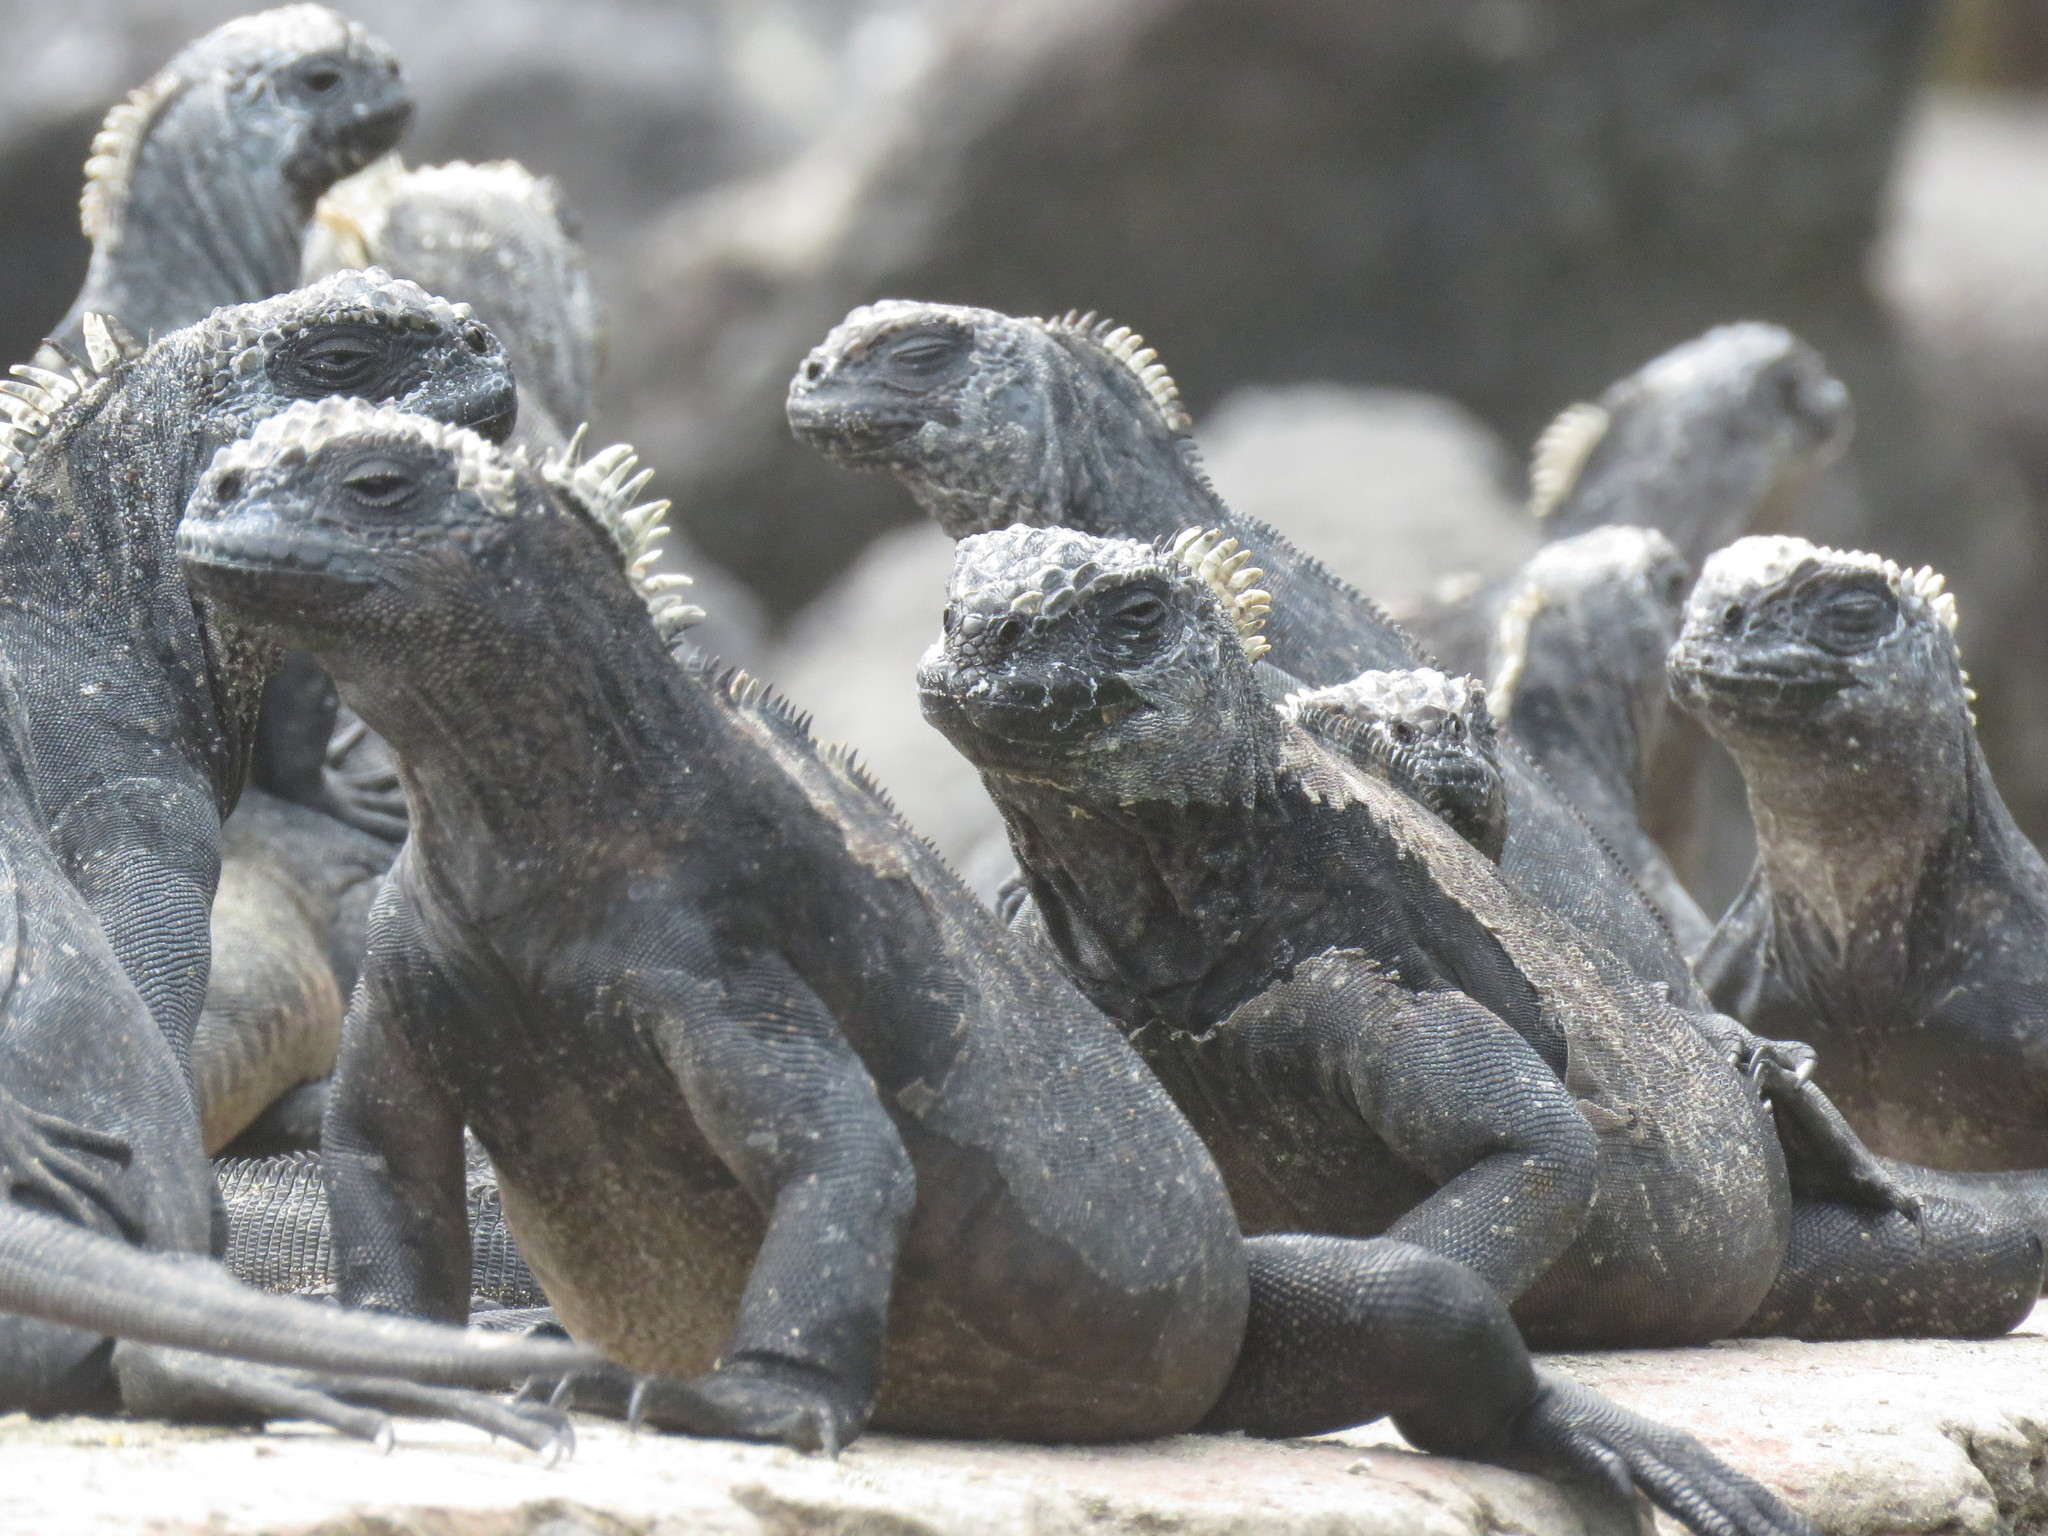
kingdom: Animalia
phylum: Chordata
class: Squamata
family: Iguanidae
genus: Amblyrhynchus
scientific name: Amblyrhynchus cristatus
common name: Marine iguana
